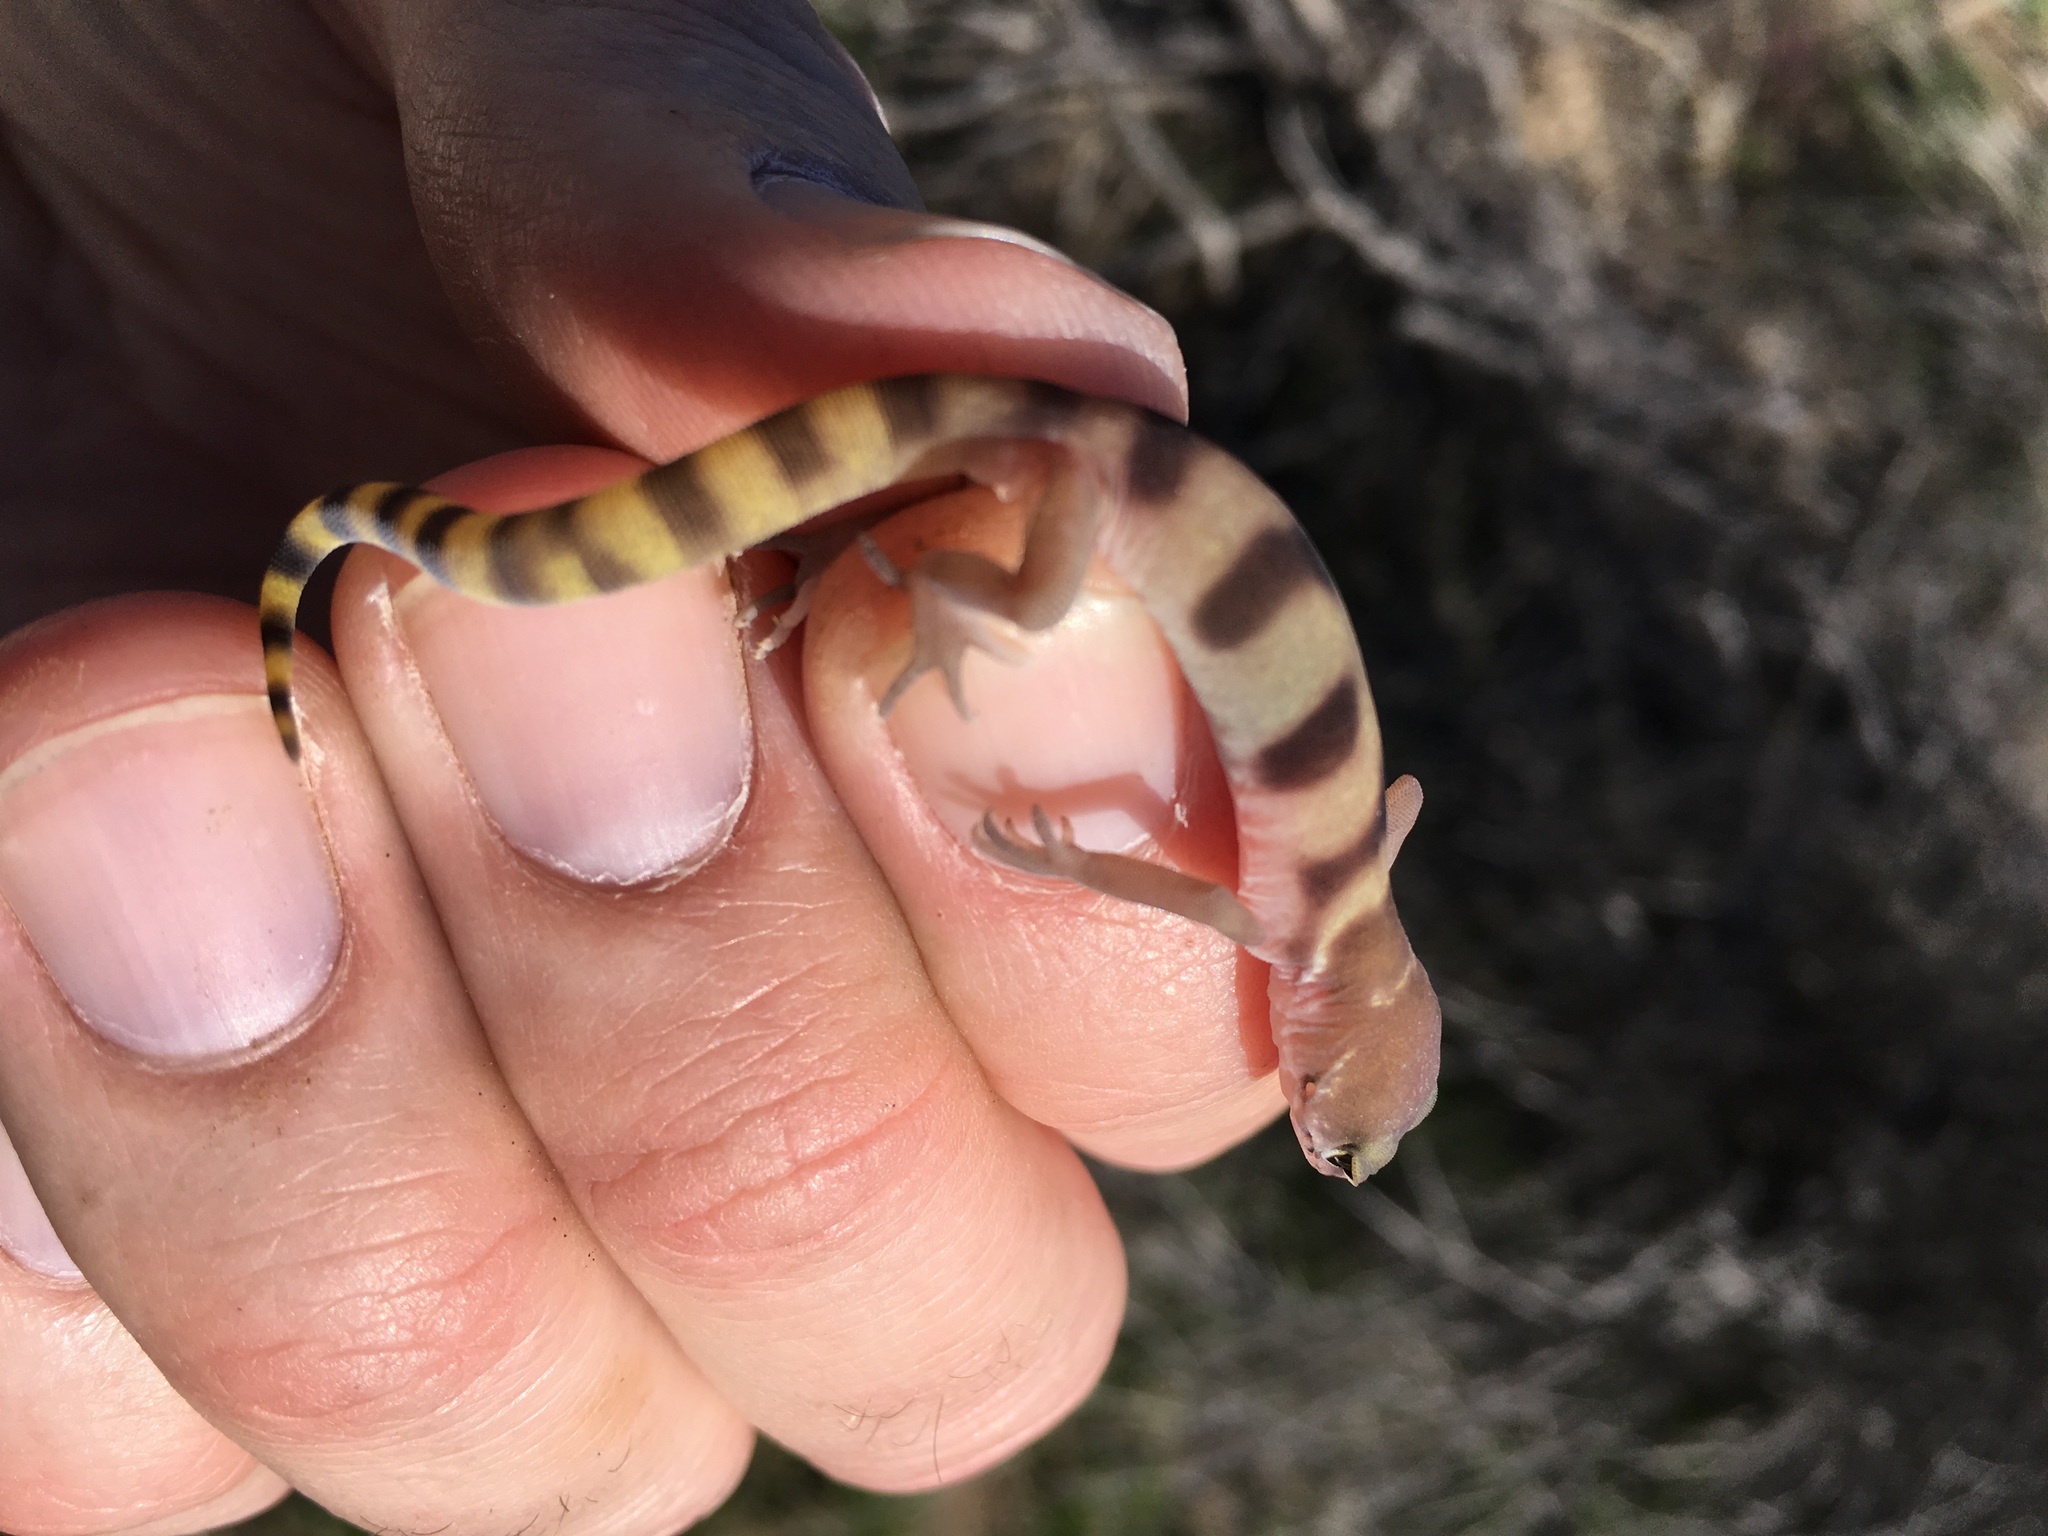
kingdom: Animalia
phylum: Chordata
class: Squamata
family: Eublepharidae
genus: Coleonyx
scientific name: Coleonyx variegatus
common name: Western banded gecko
